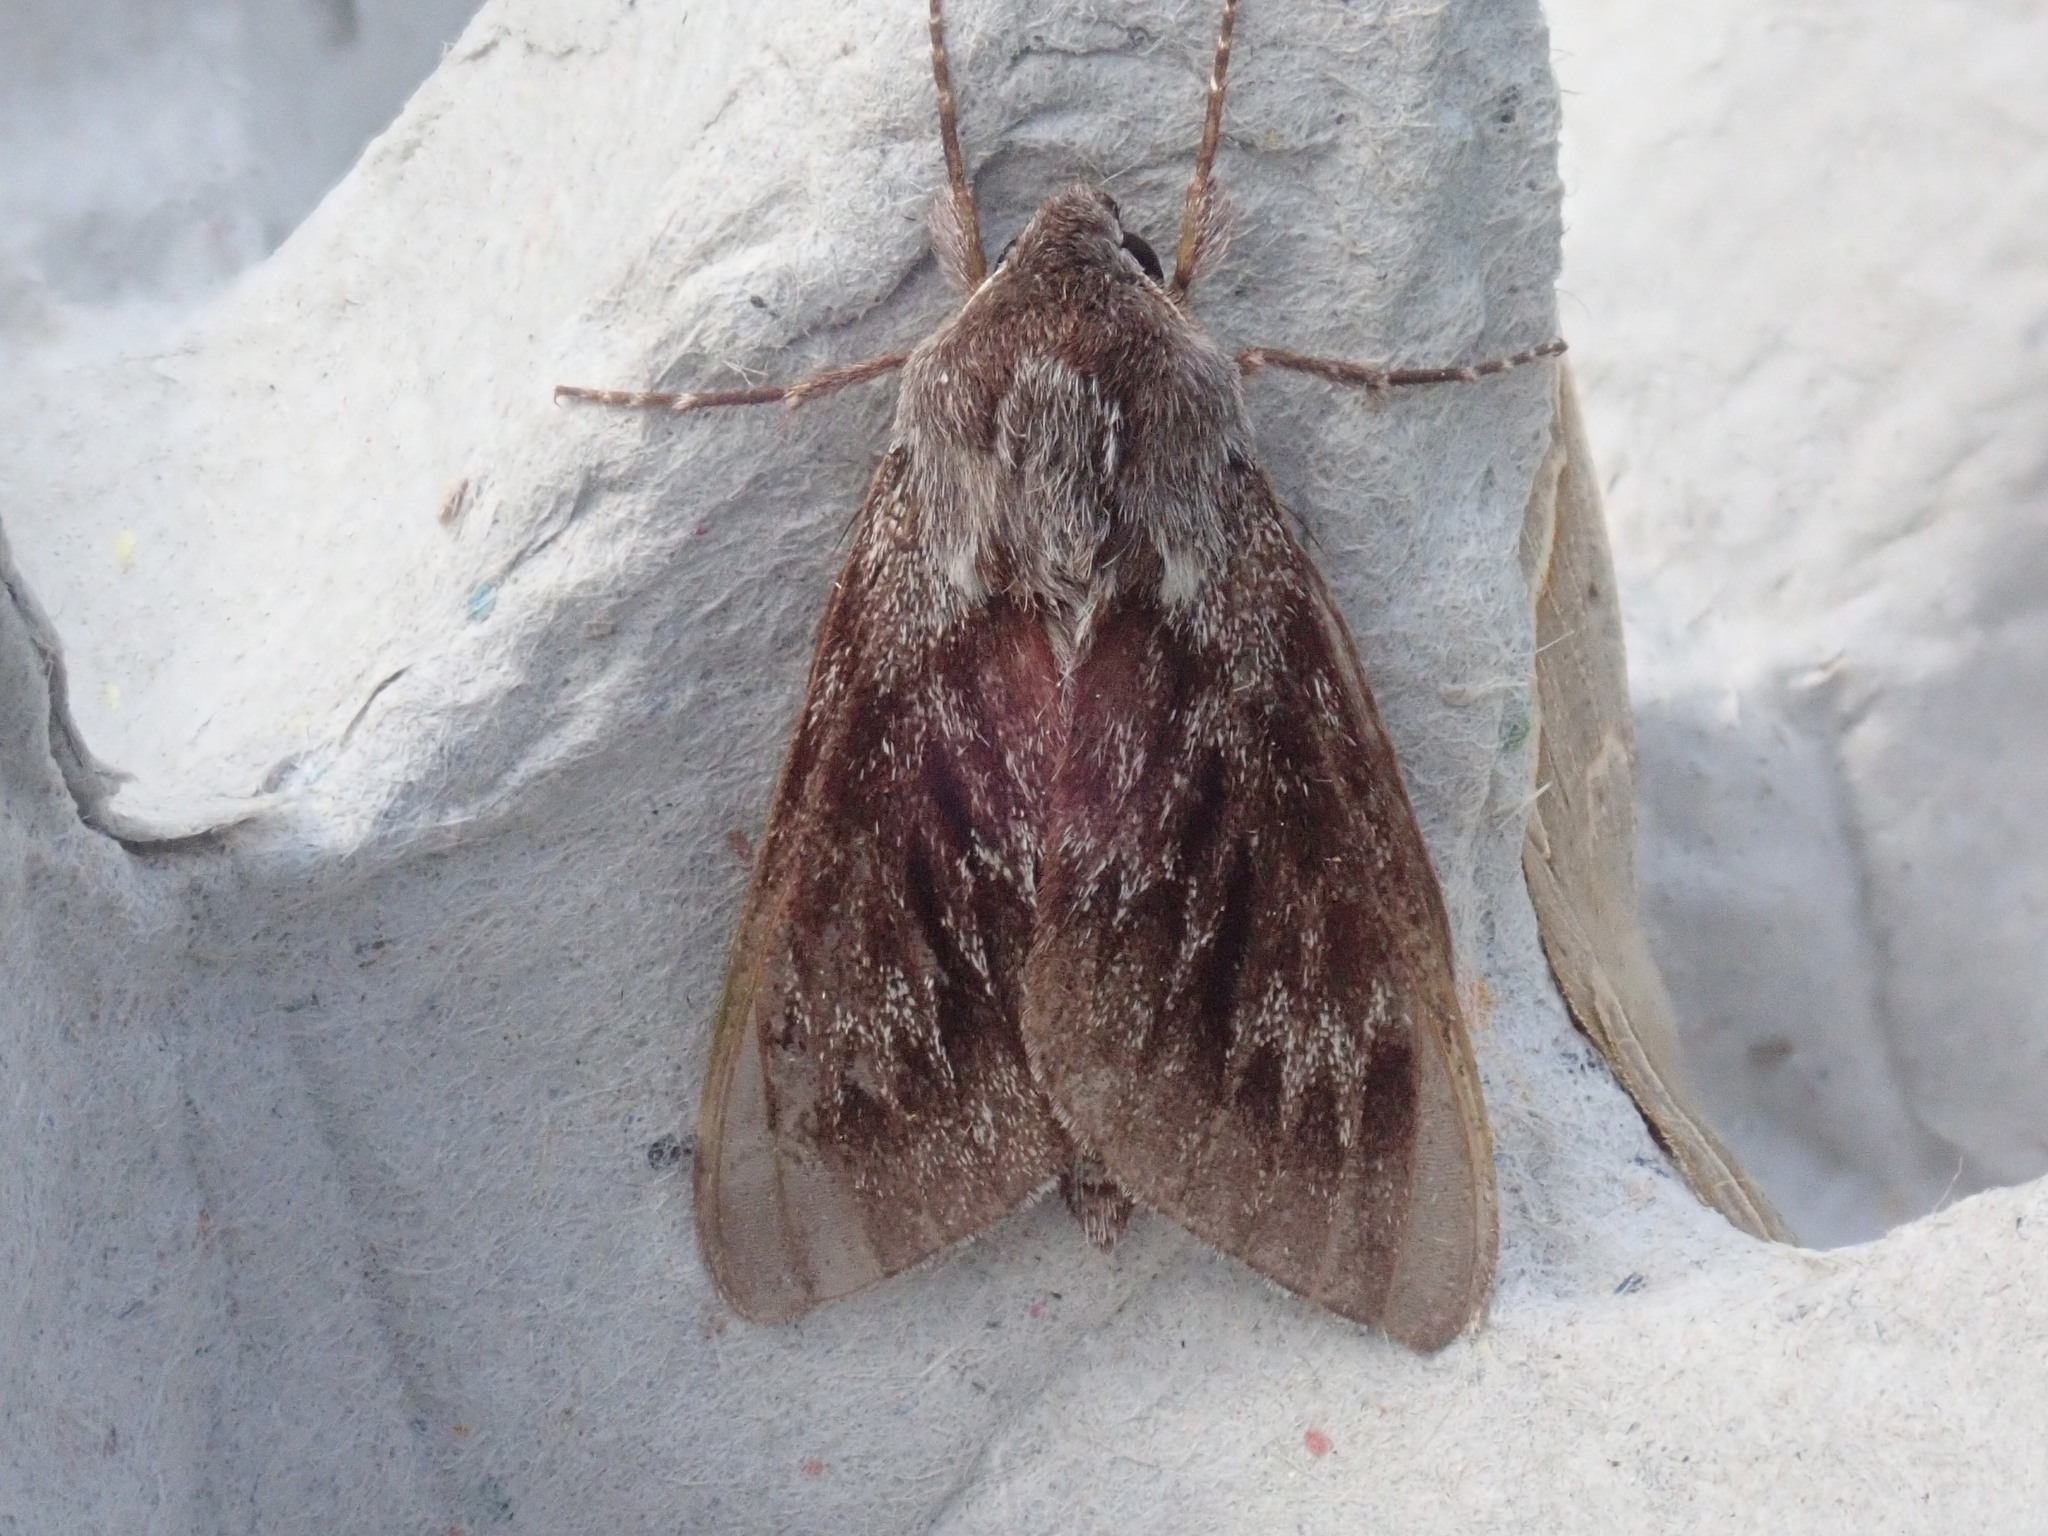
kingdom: Animalia
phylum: Arthropoda
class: Insecta
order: Lepidoptera
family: Sphingidae
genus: Lapara
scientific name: Lapara bombycoides
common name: Northern pine sphinx
